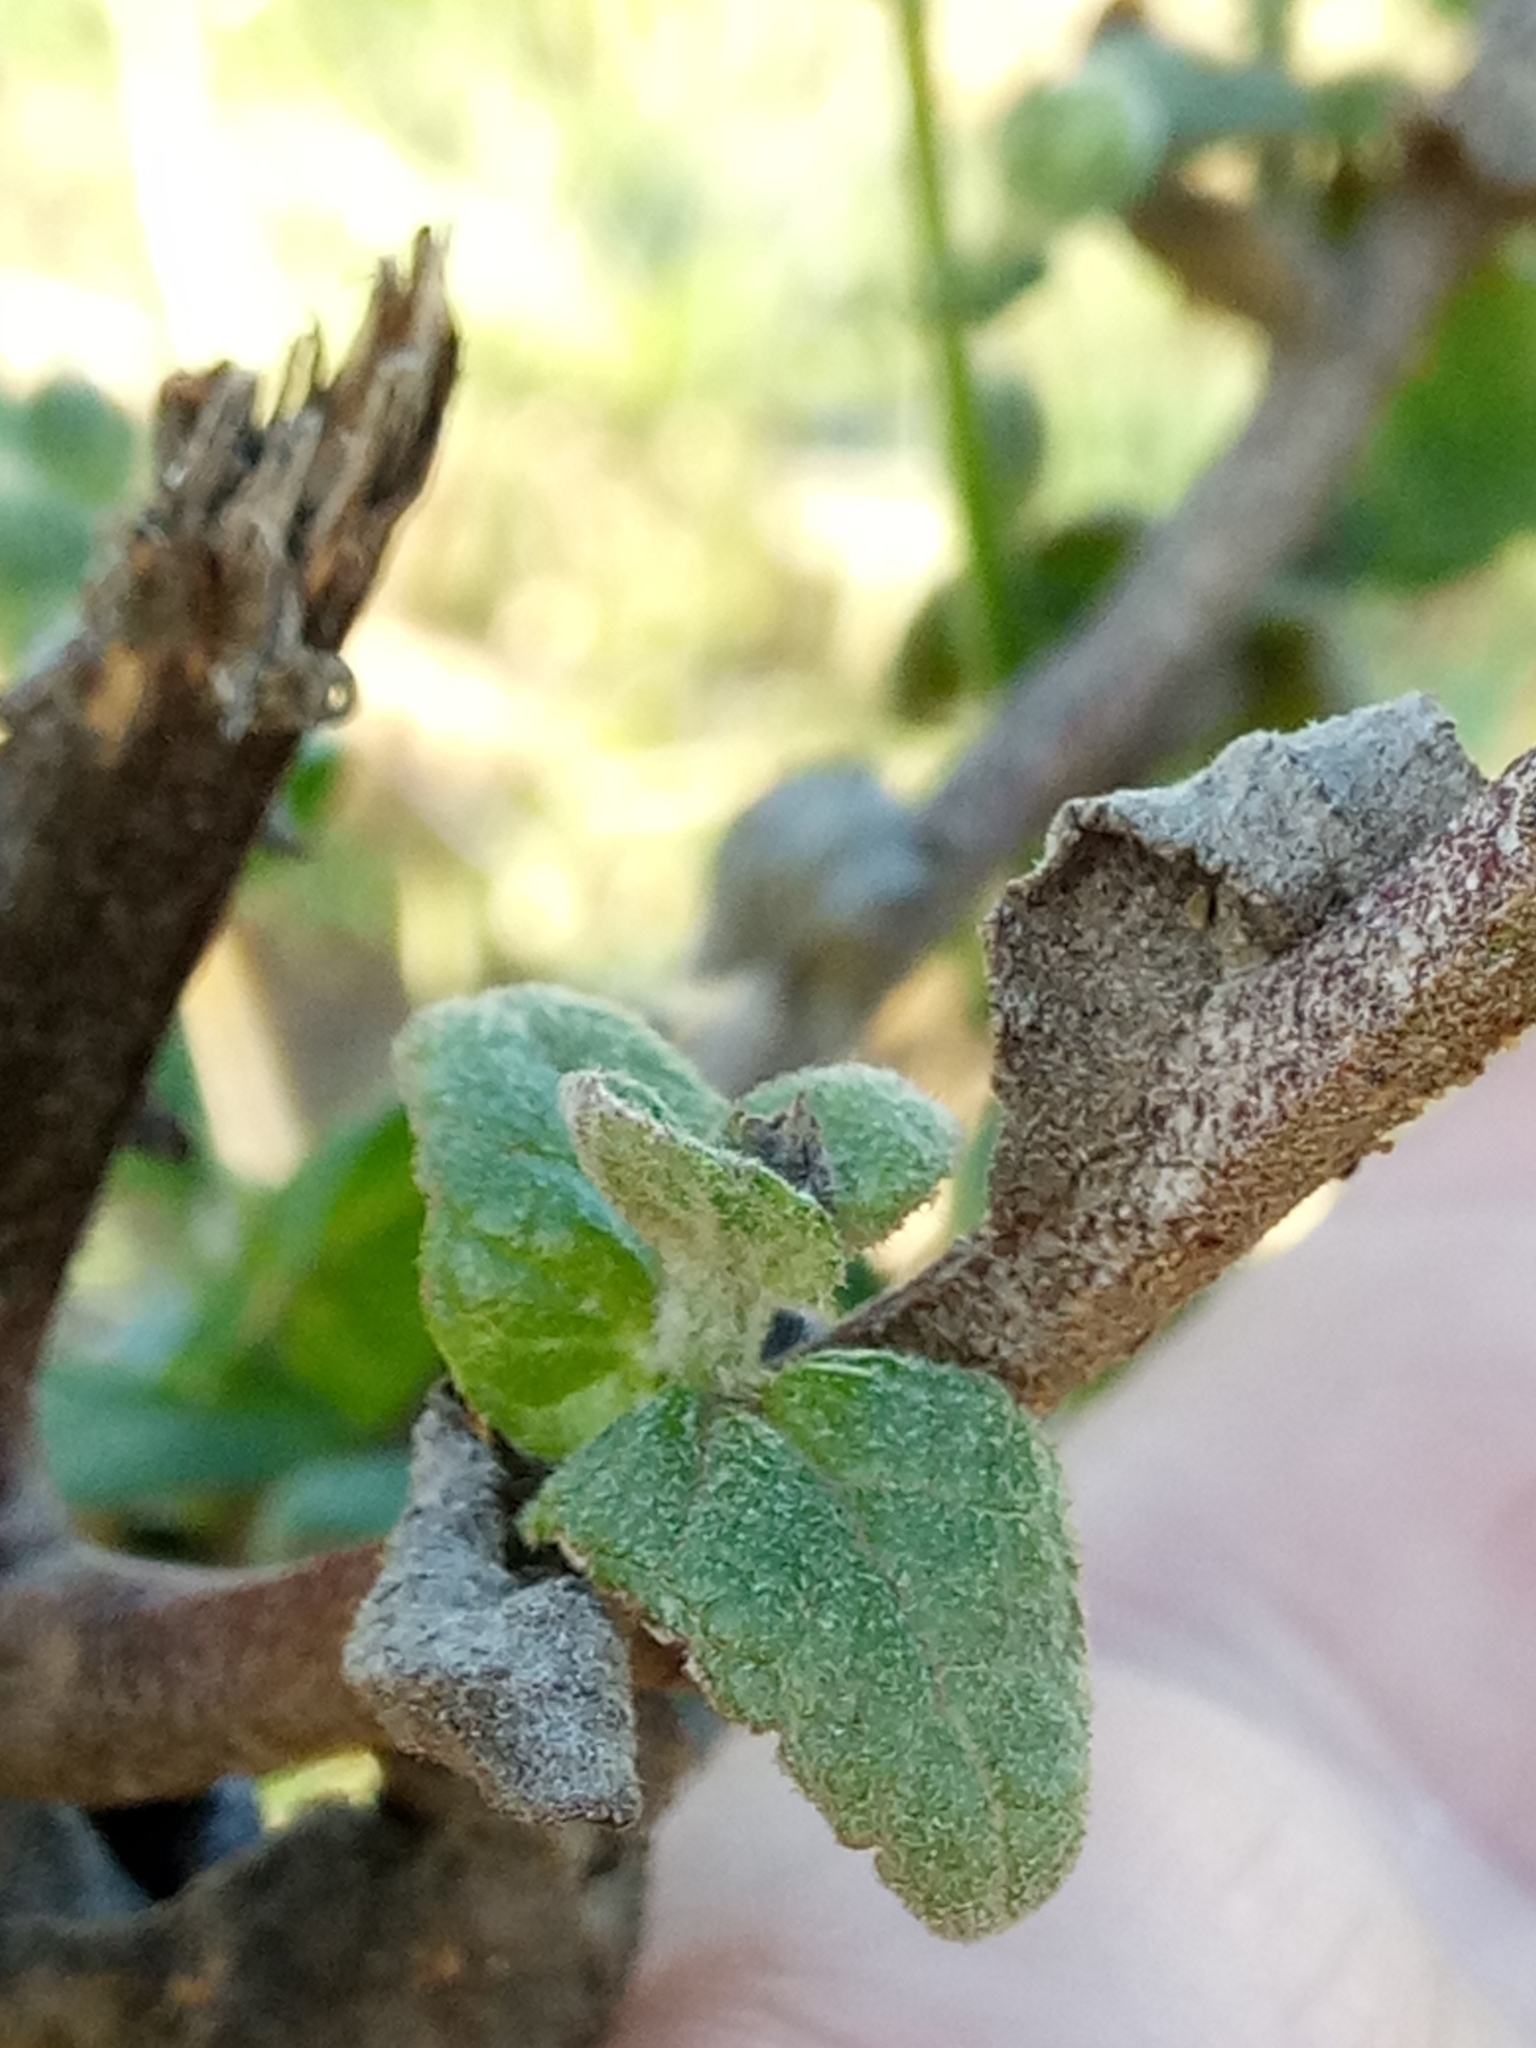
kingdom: Plantae
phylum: Tracheophyta
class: Magnoliopsida
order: Lamiales
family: Scrophulariaceae
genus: Verbascum
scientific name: Verbascum sinuatum
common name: Wavyleaf mullein
